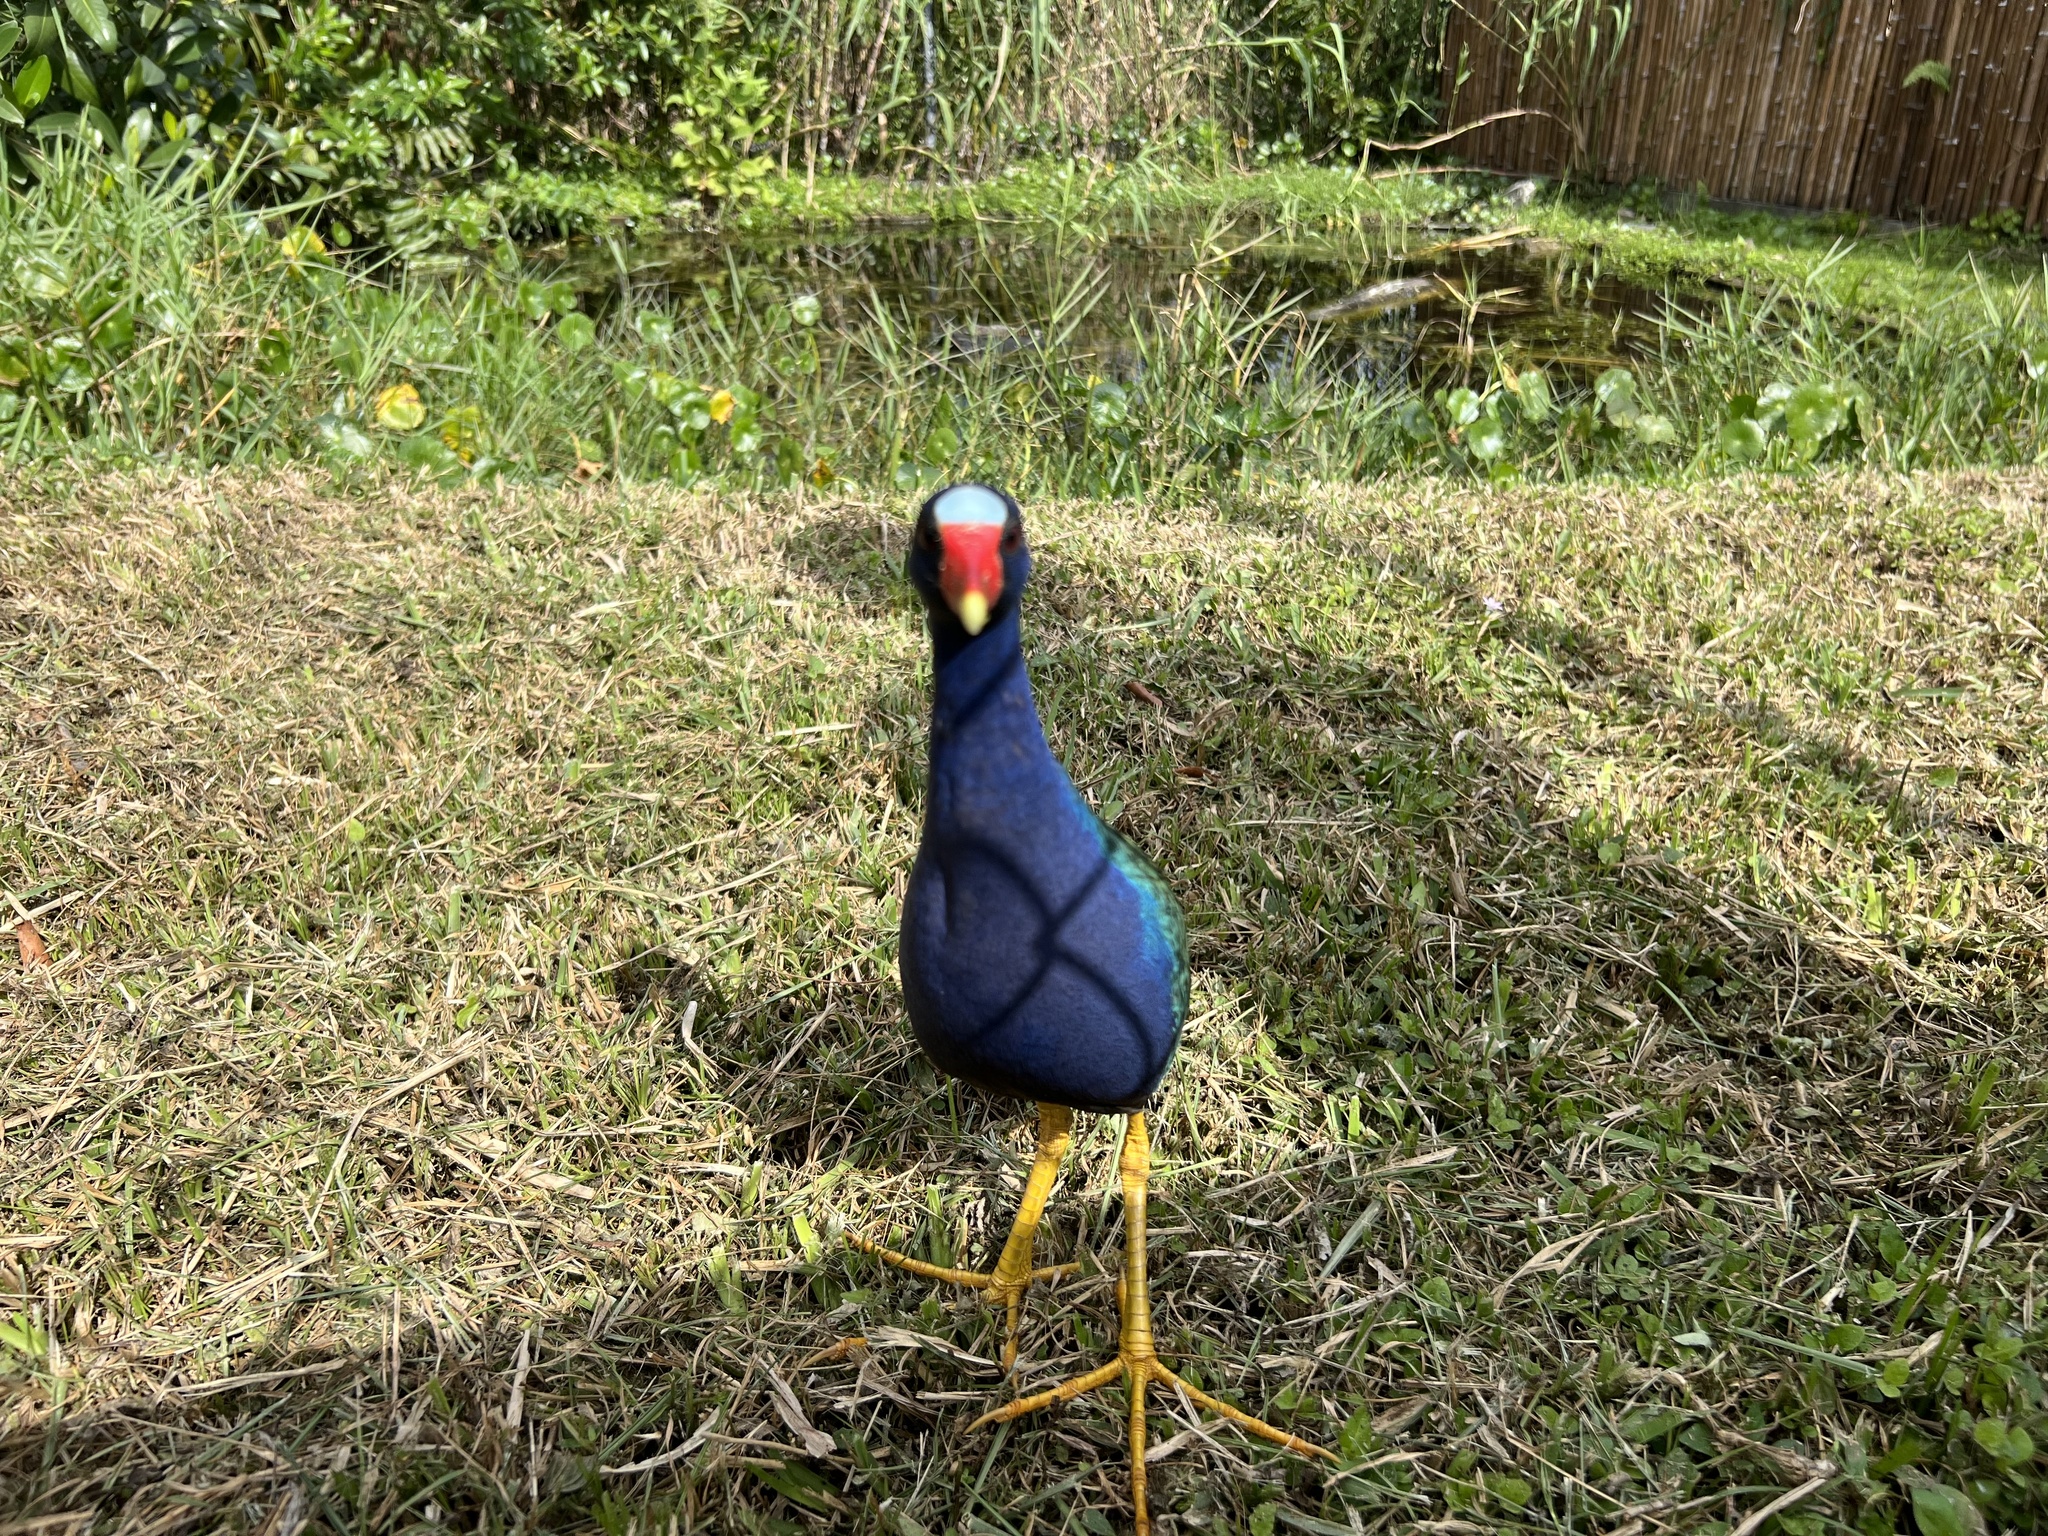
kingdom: Animalia
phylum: Chordata
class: Aves
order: Gruiformes
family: Rallidae
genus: Porphyrio
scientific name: Porphyrio martinica
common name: Purple gallinule
